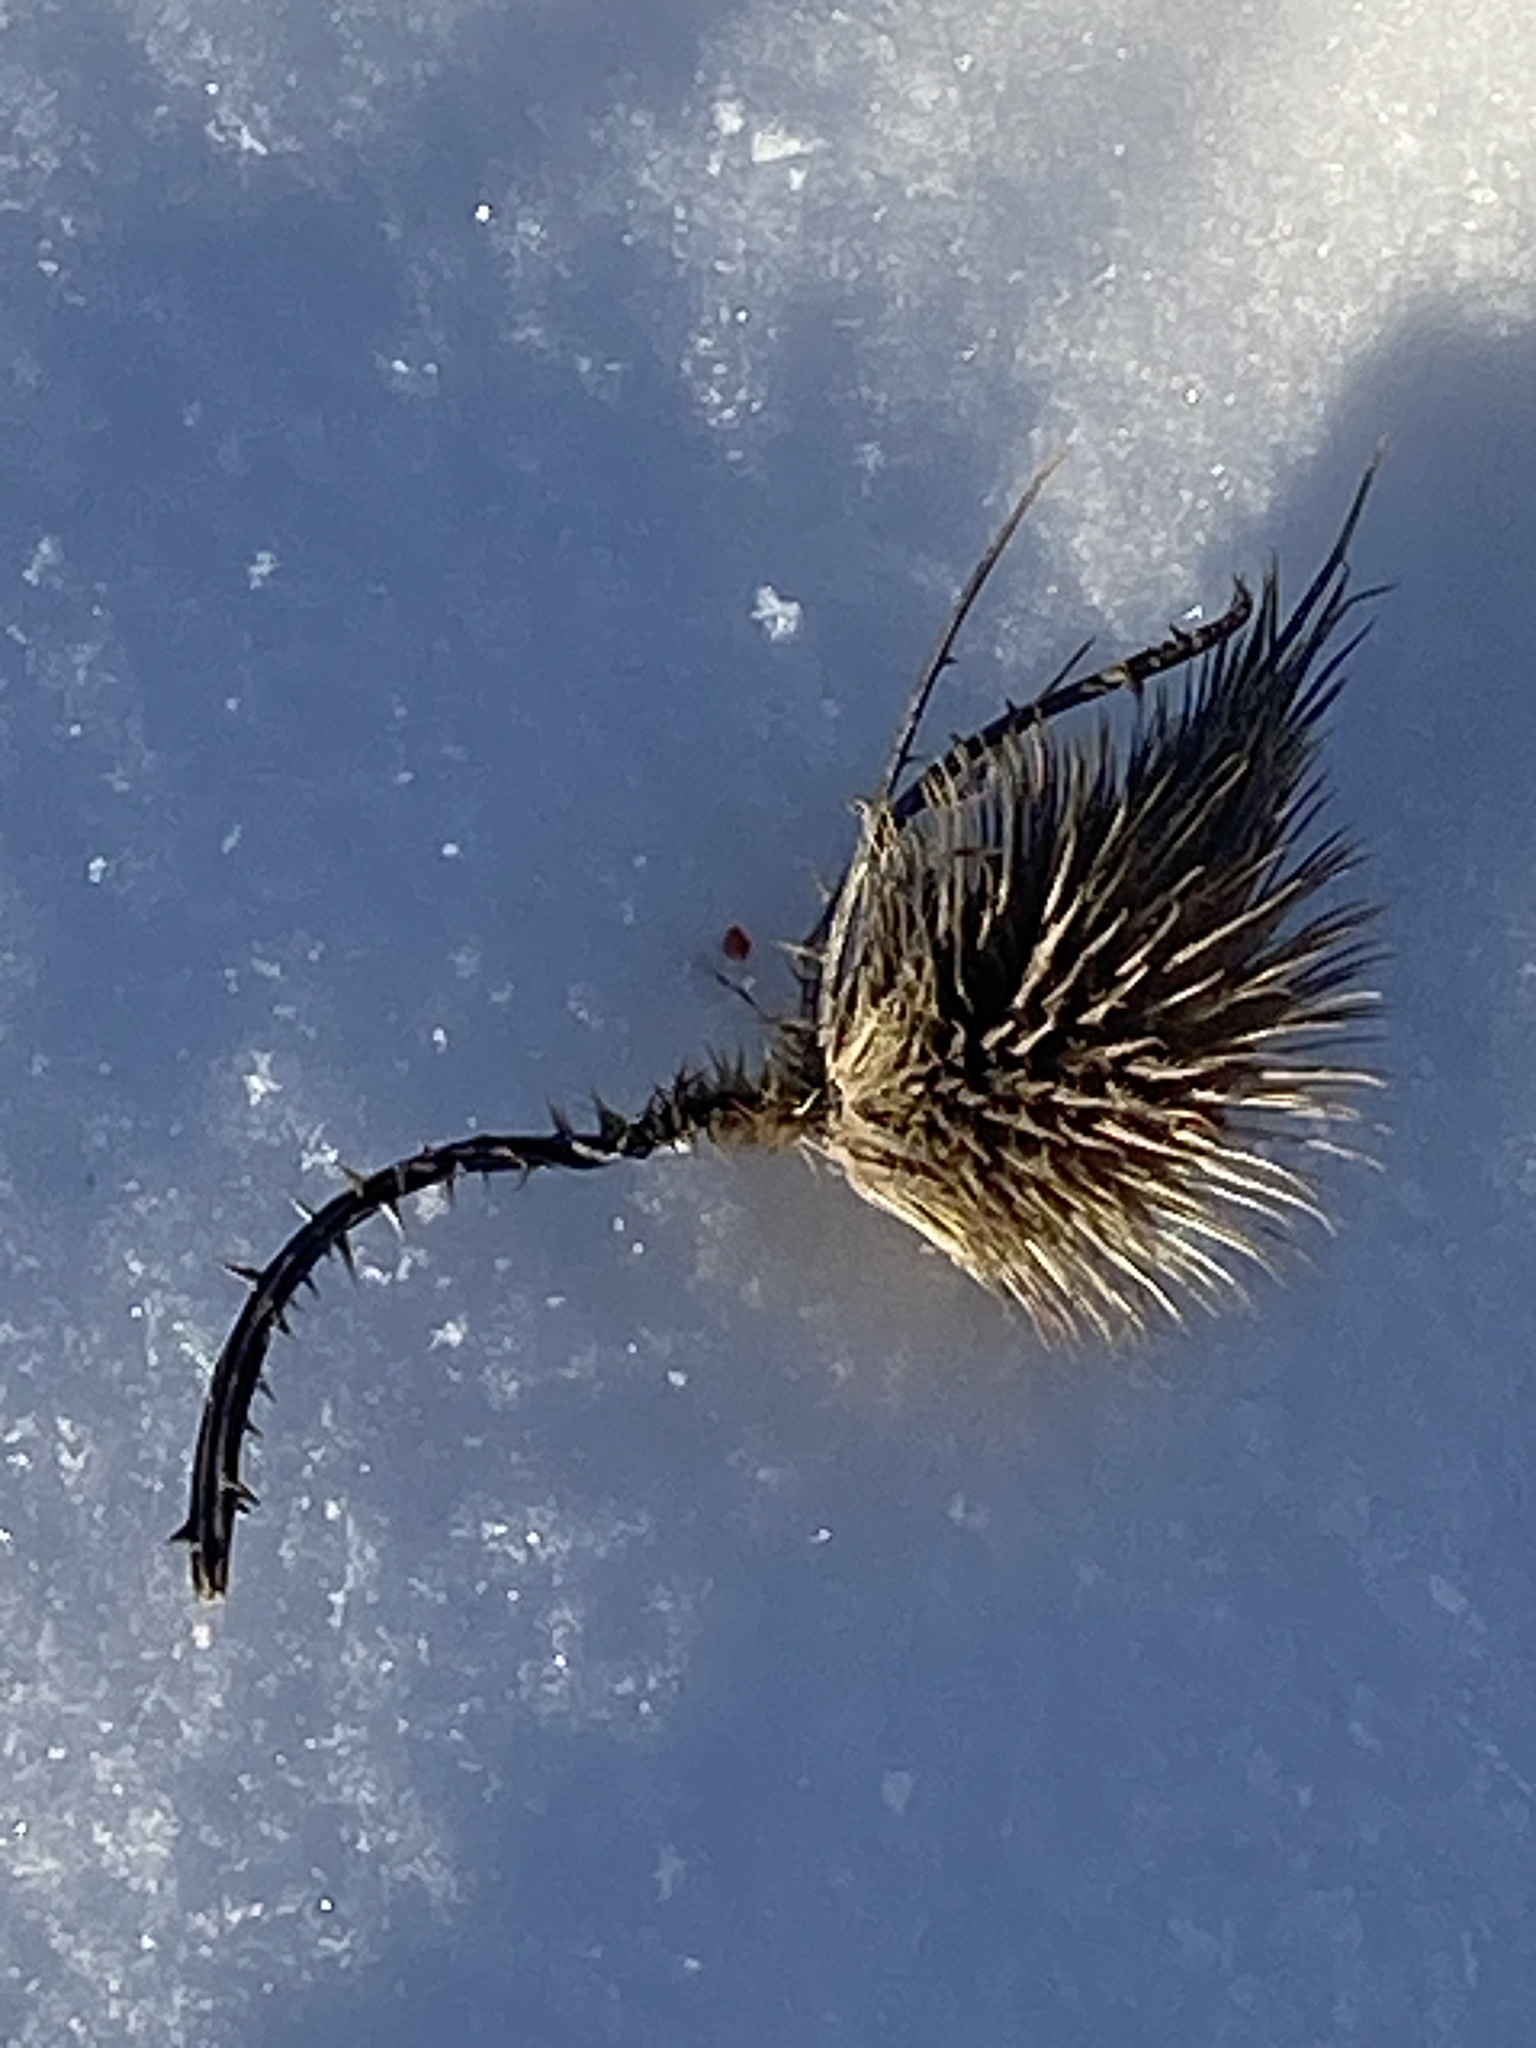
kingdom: Plantae
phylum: Tracheophyta
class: Magnoliopsida
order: Dipsacales
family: Caprifoliaceae
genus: Dipsacus
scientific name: Dipsacus fullonum
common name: Teasel
